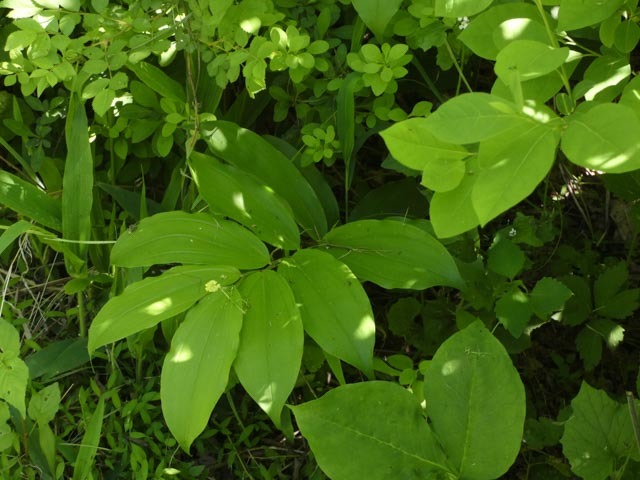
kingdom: Plantae
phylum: Tracheophyta
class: Liliopsida
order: Asparagales
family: Asparagaceae
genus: Maianthemum
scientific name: Maianthemum racemosum
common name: False spikenard
